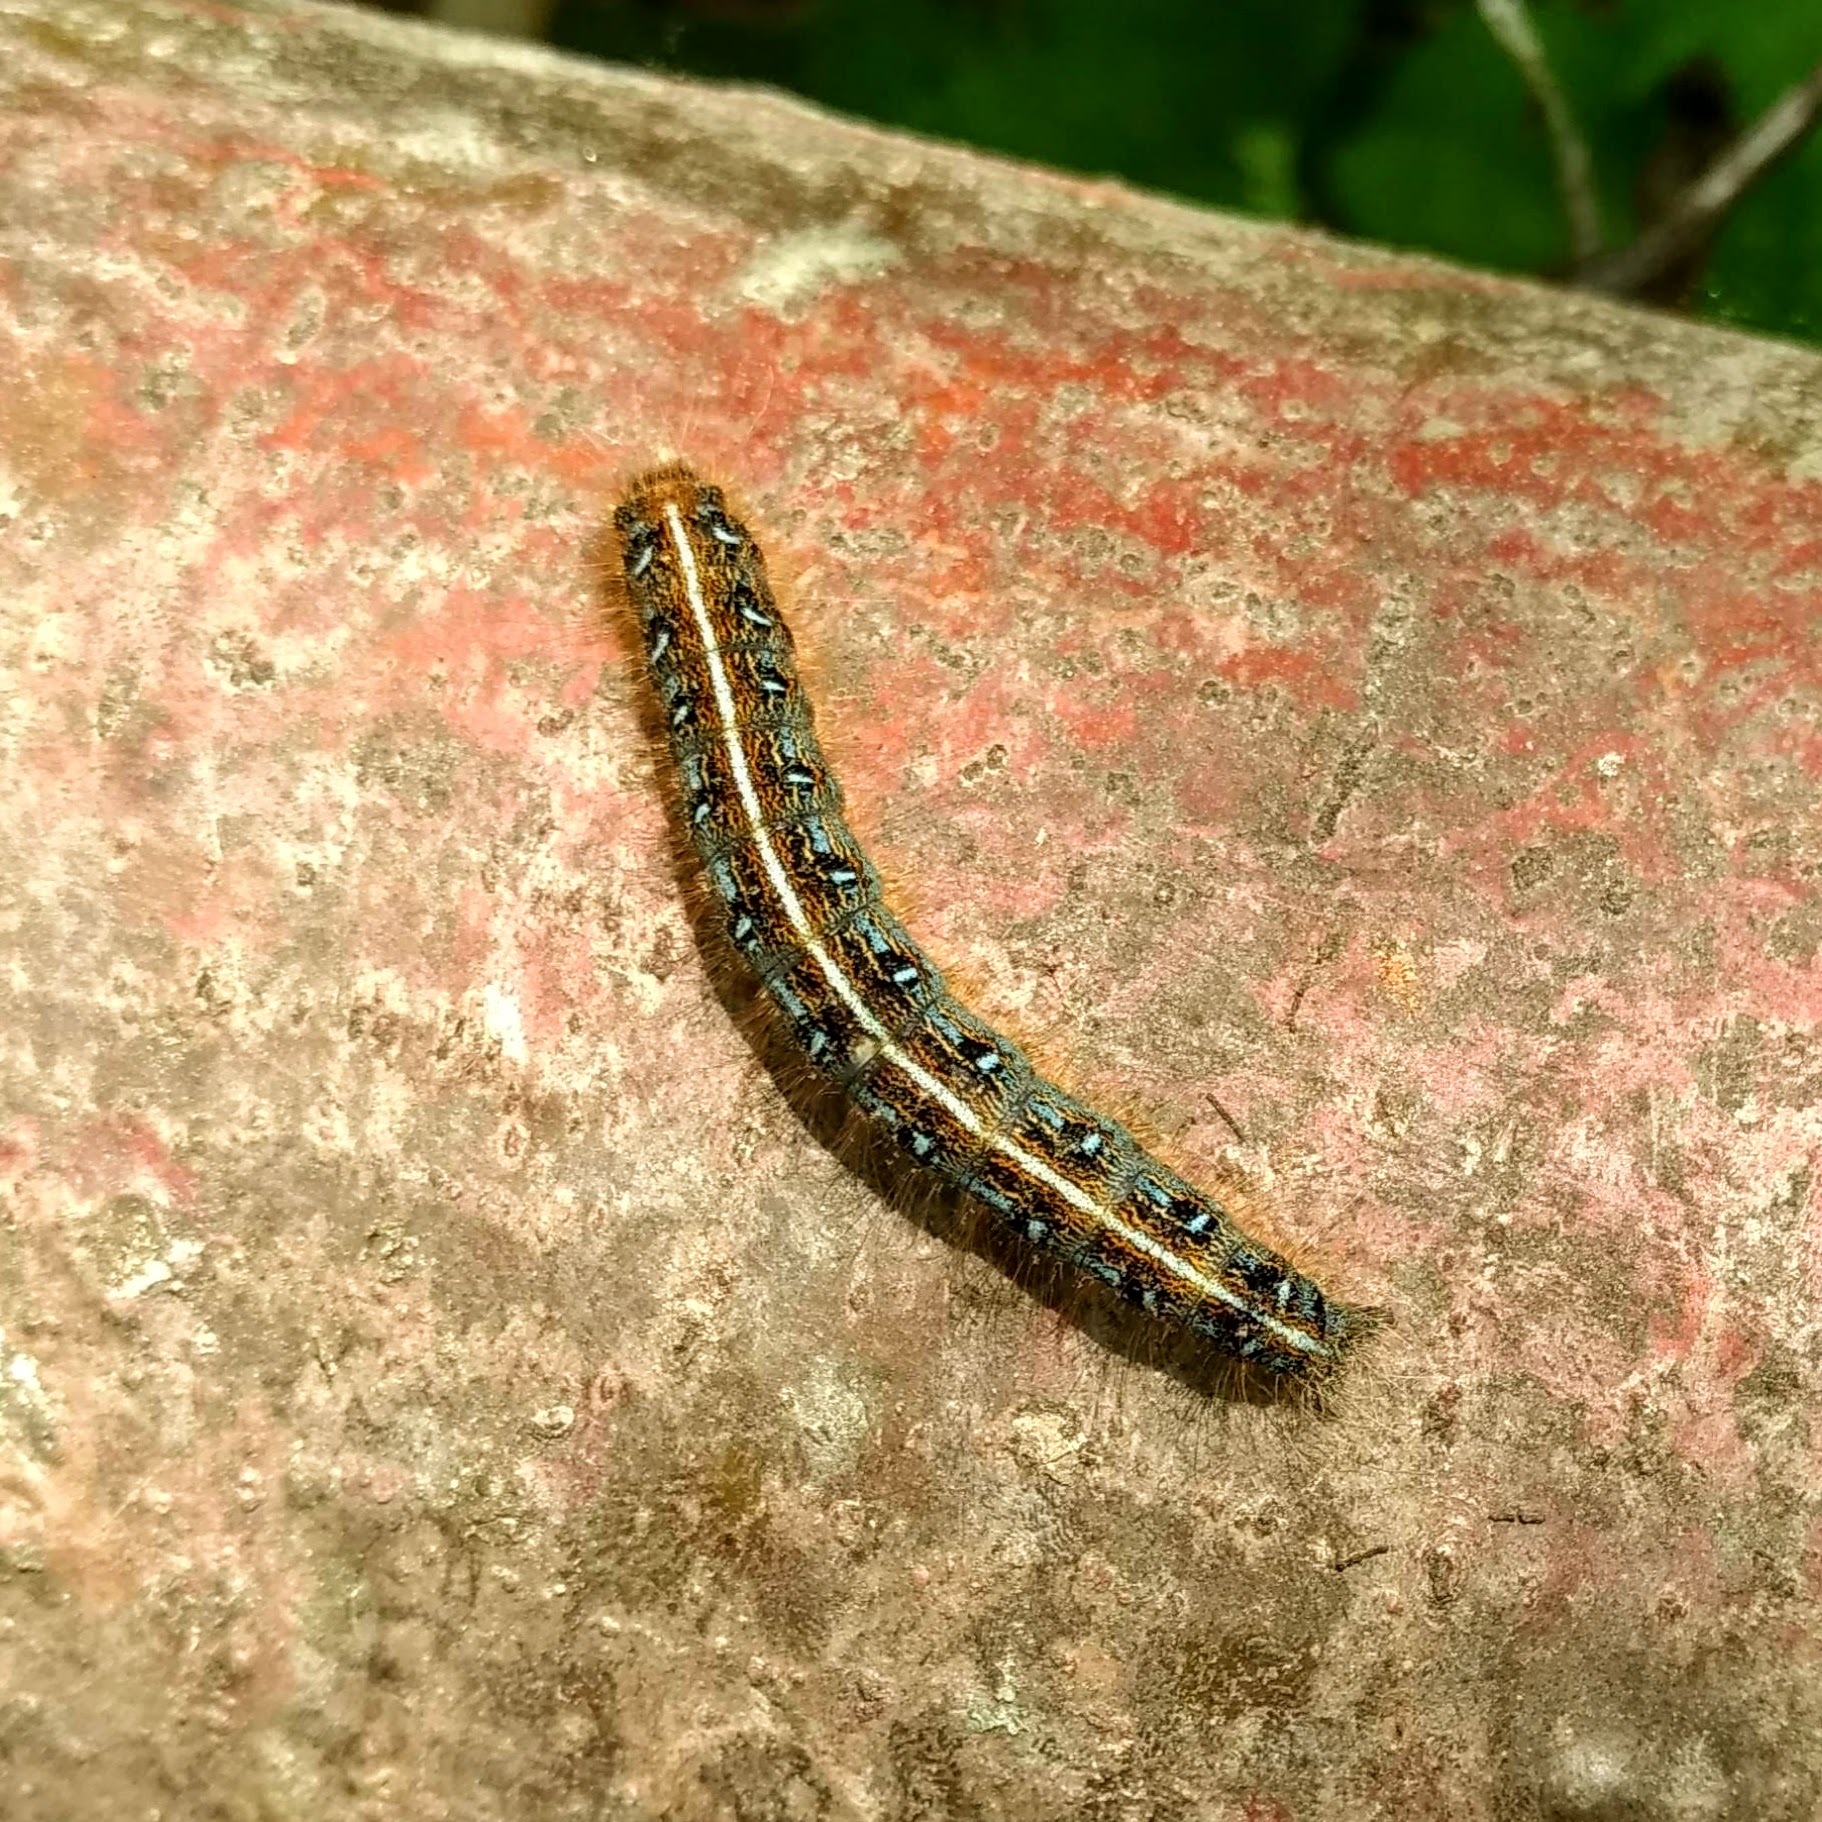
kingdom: Animalia
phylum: Arthropoda
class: Insecta
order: Lepidoptera
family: Lasiocampidae
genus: Malacosoma
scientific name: Malacosoma americana
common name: Eastern tent caterpillar moth
